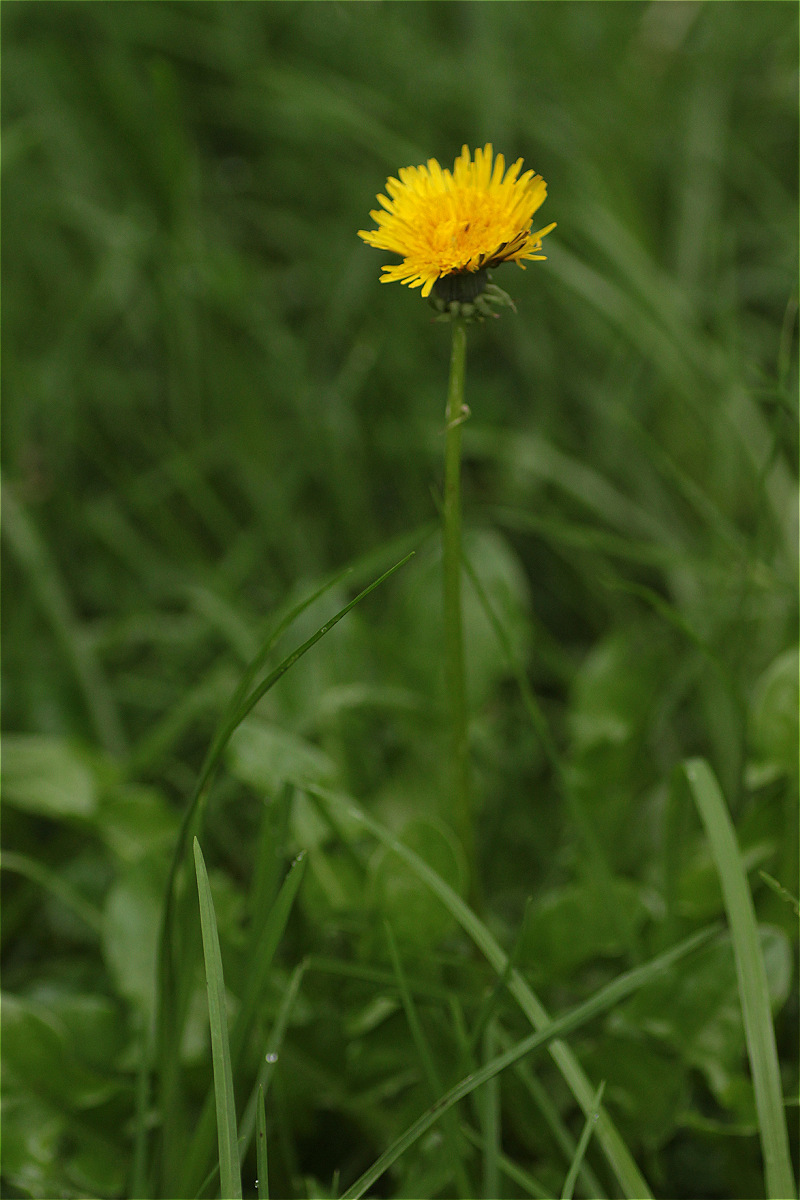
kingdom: Plantae
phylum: Tracheophyta
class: Magnoliopsida
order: Asterales
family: Asteraceae
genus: Taraxacum
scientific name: Taraxacum officinale
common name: Common dandelion
